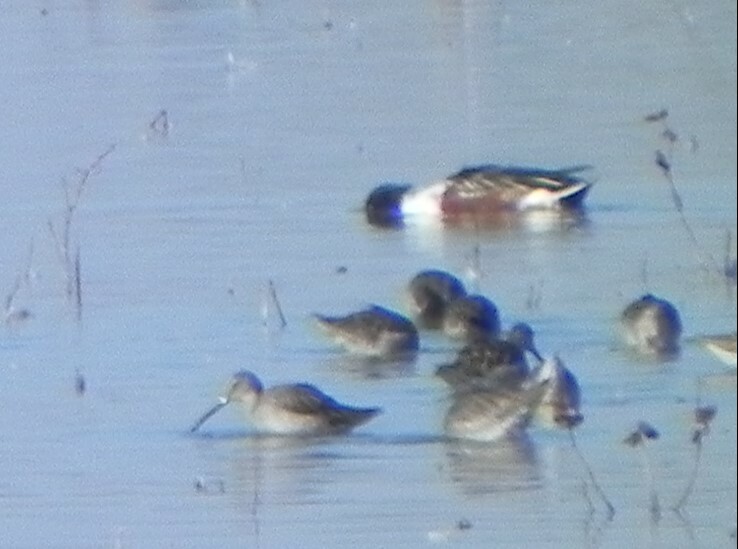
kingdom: Animalia
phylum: Chordata
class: Aves
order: Anseriformes
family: Anatidae
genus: Spatula
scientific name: Spatula clypeata
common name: Northern shoveler
